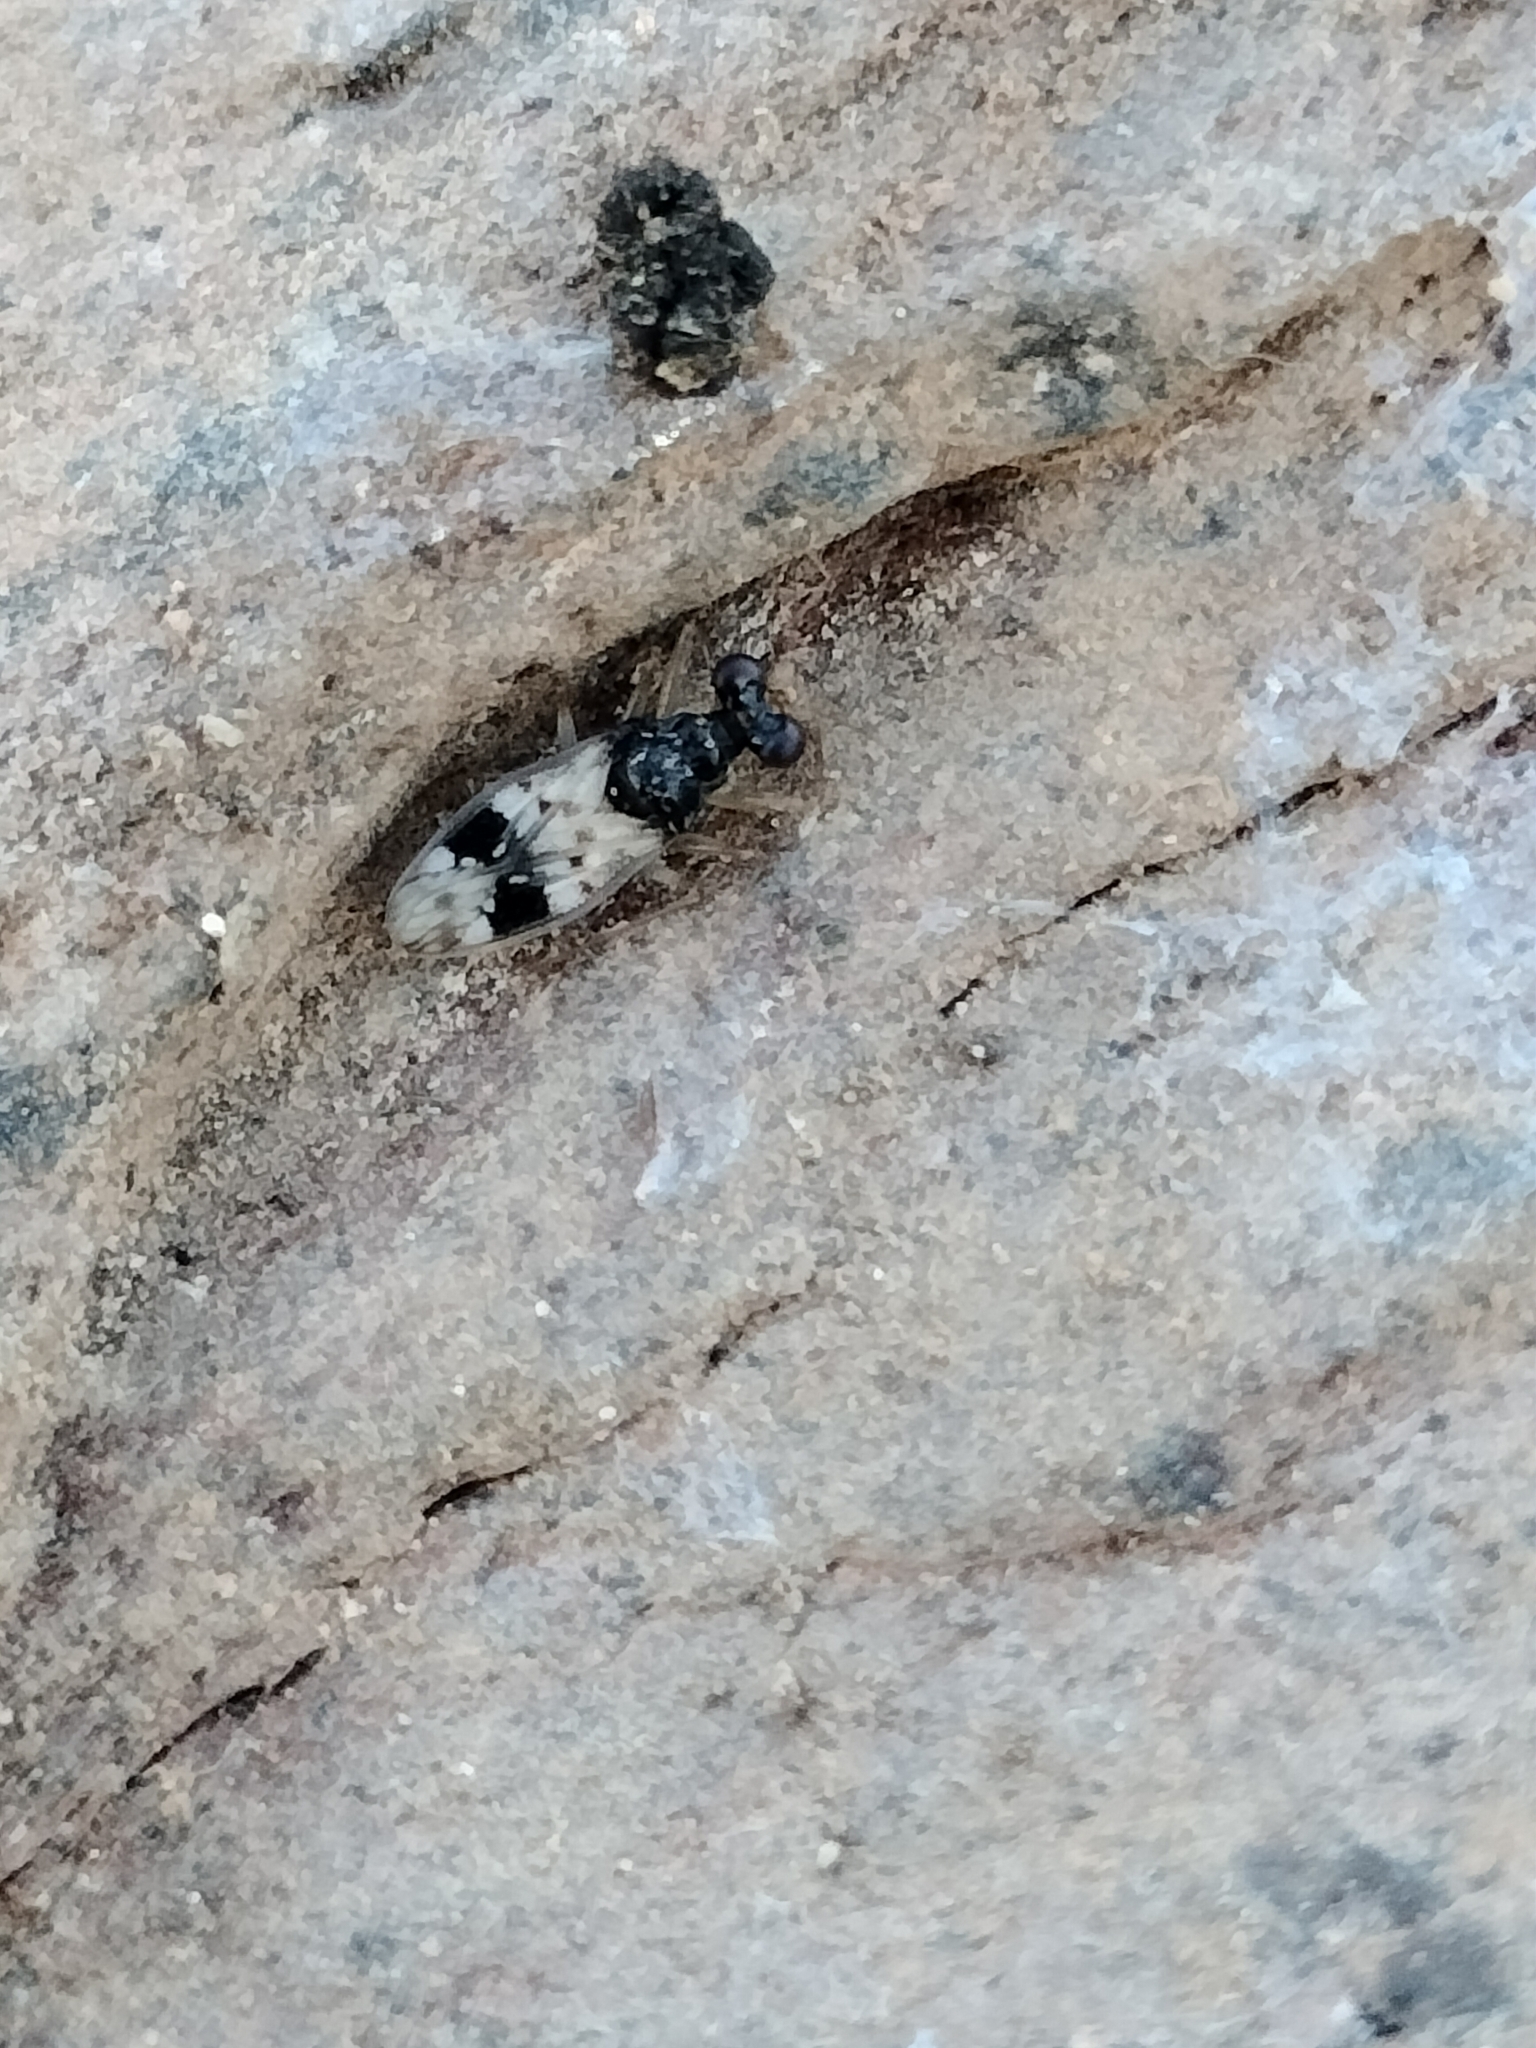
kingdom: Animalia
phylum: Arthropoda
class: Insecta
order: Hemiptera
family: Leptopodidae
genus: Leptopus
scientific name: Leptopus hispanus
